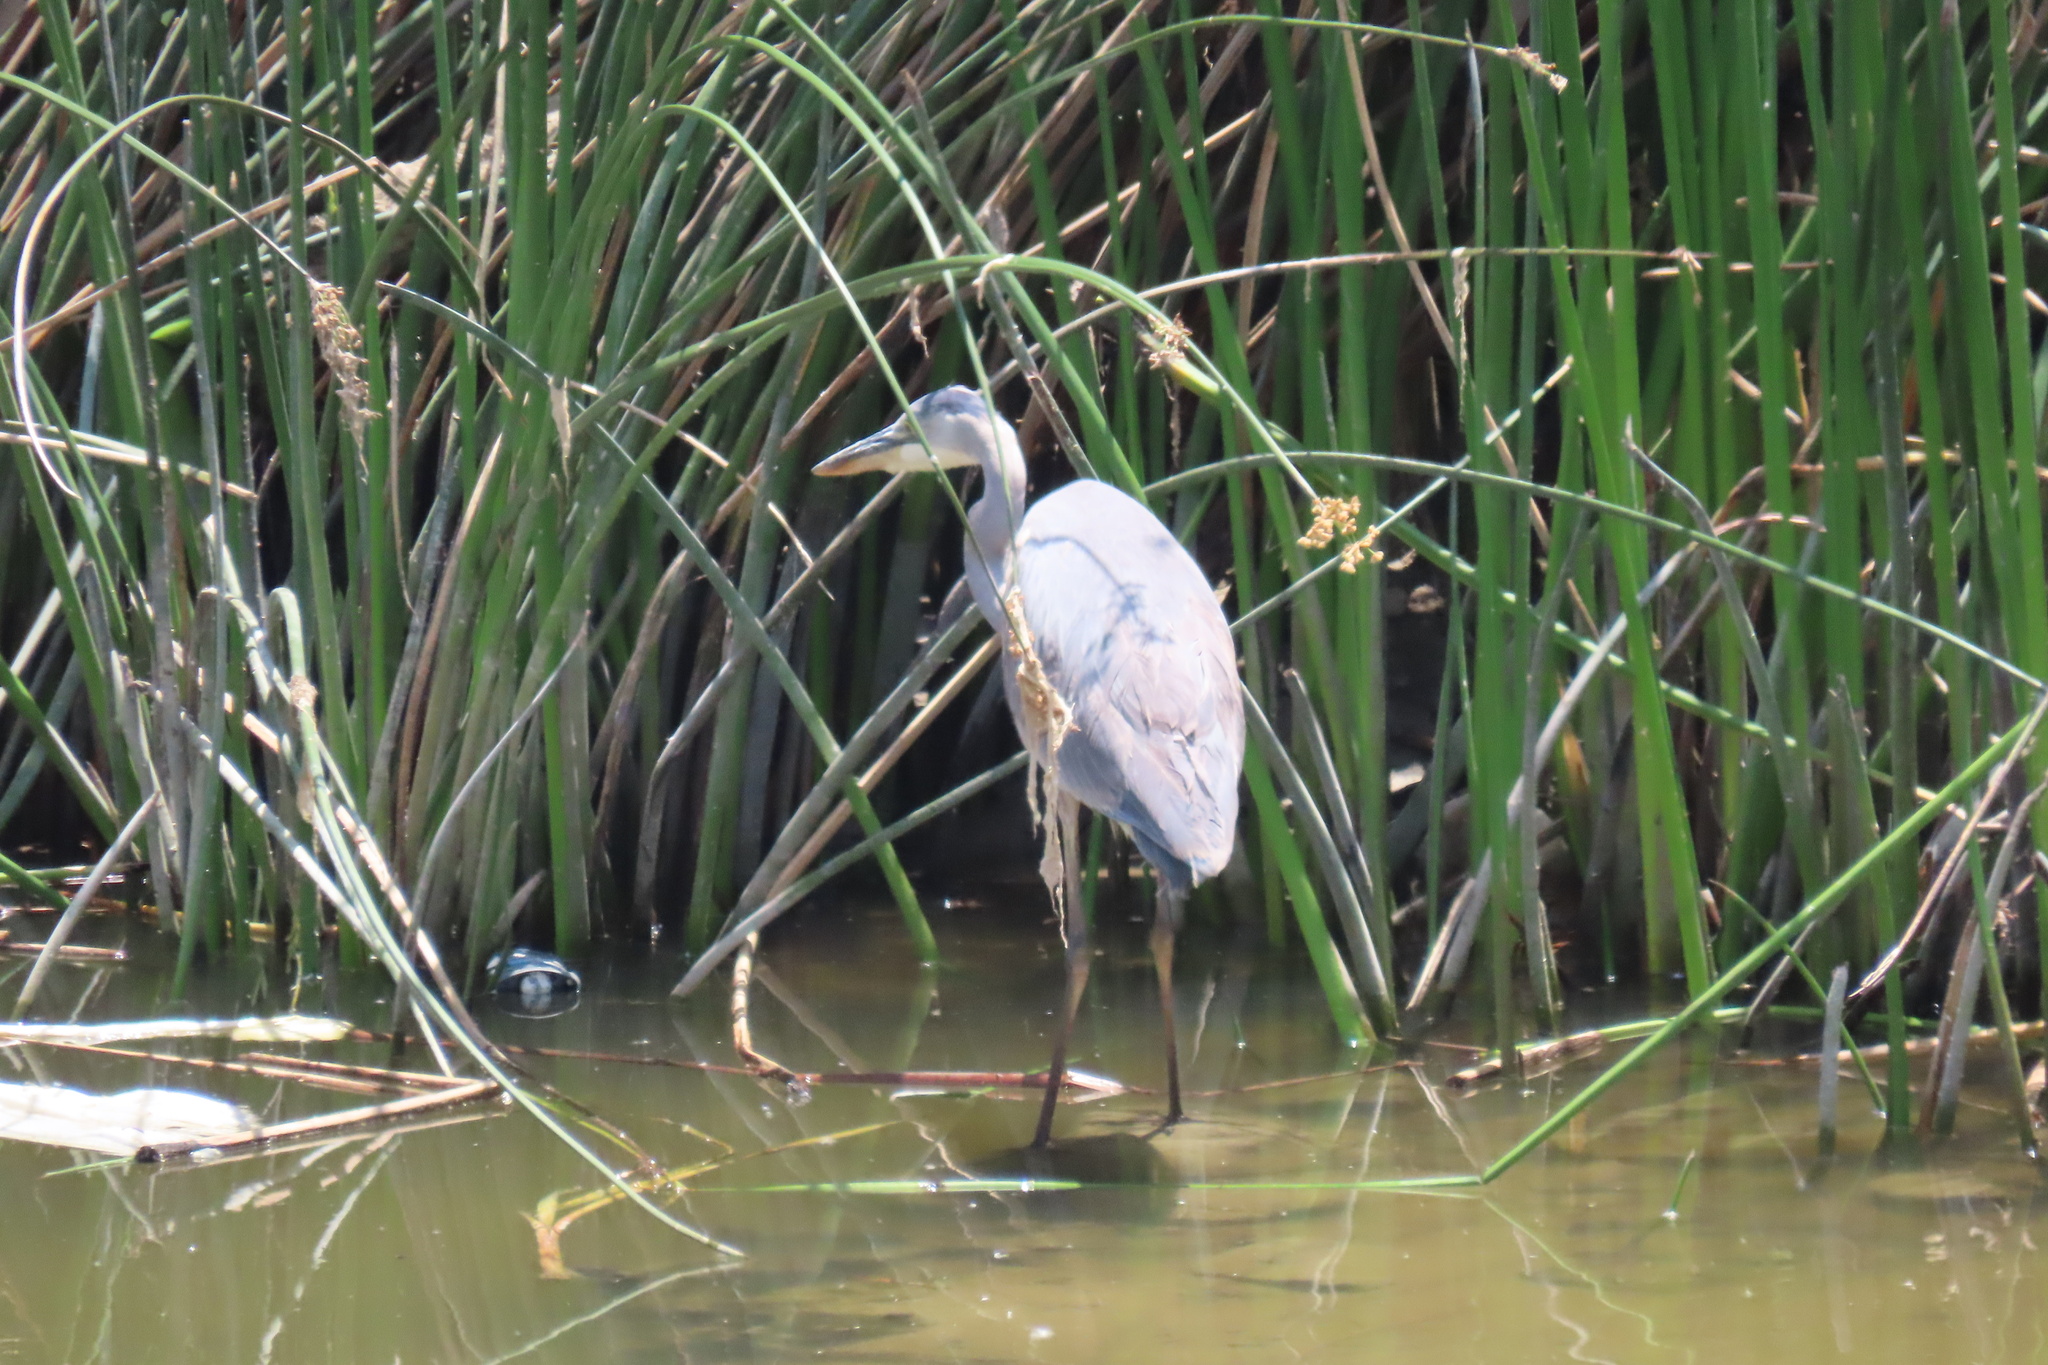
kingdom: Animalia
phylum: Chordata
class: Aves
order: Pelecaniformes
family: Ardeidae
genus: Ardea
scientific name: Ardea herodias
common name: Great blue heron
